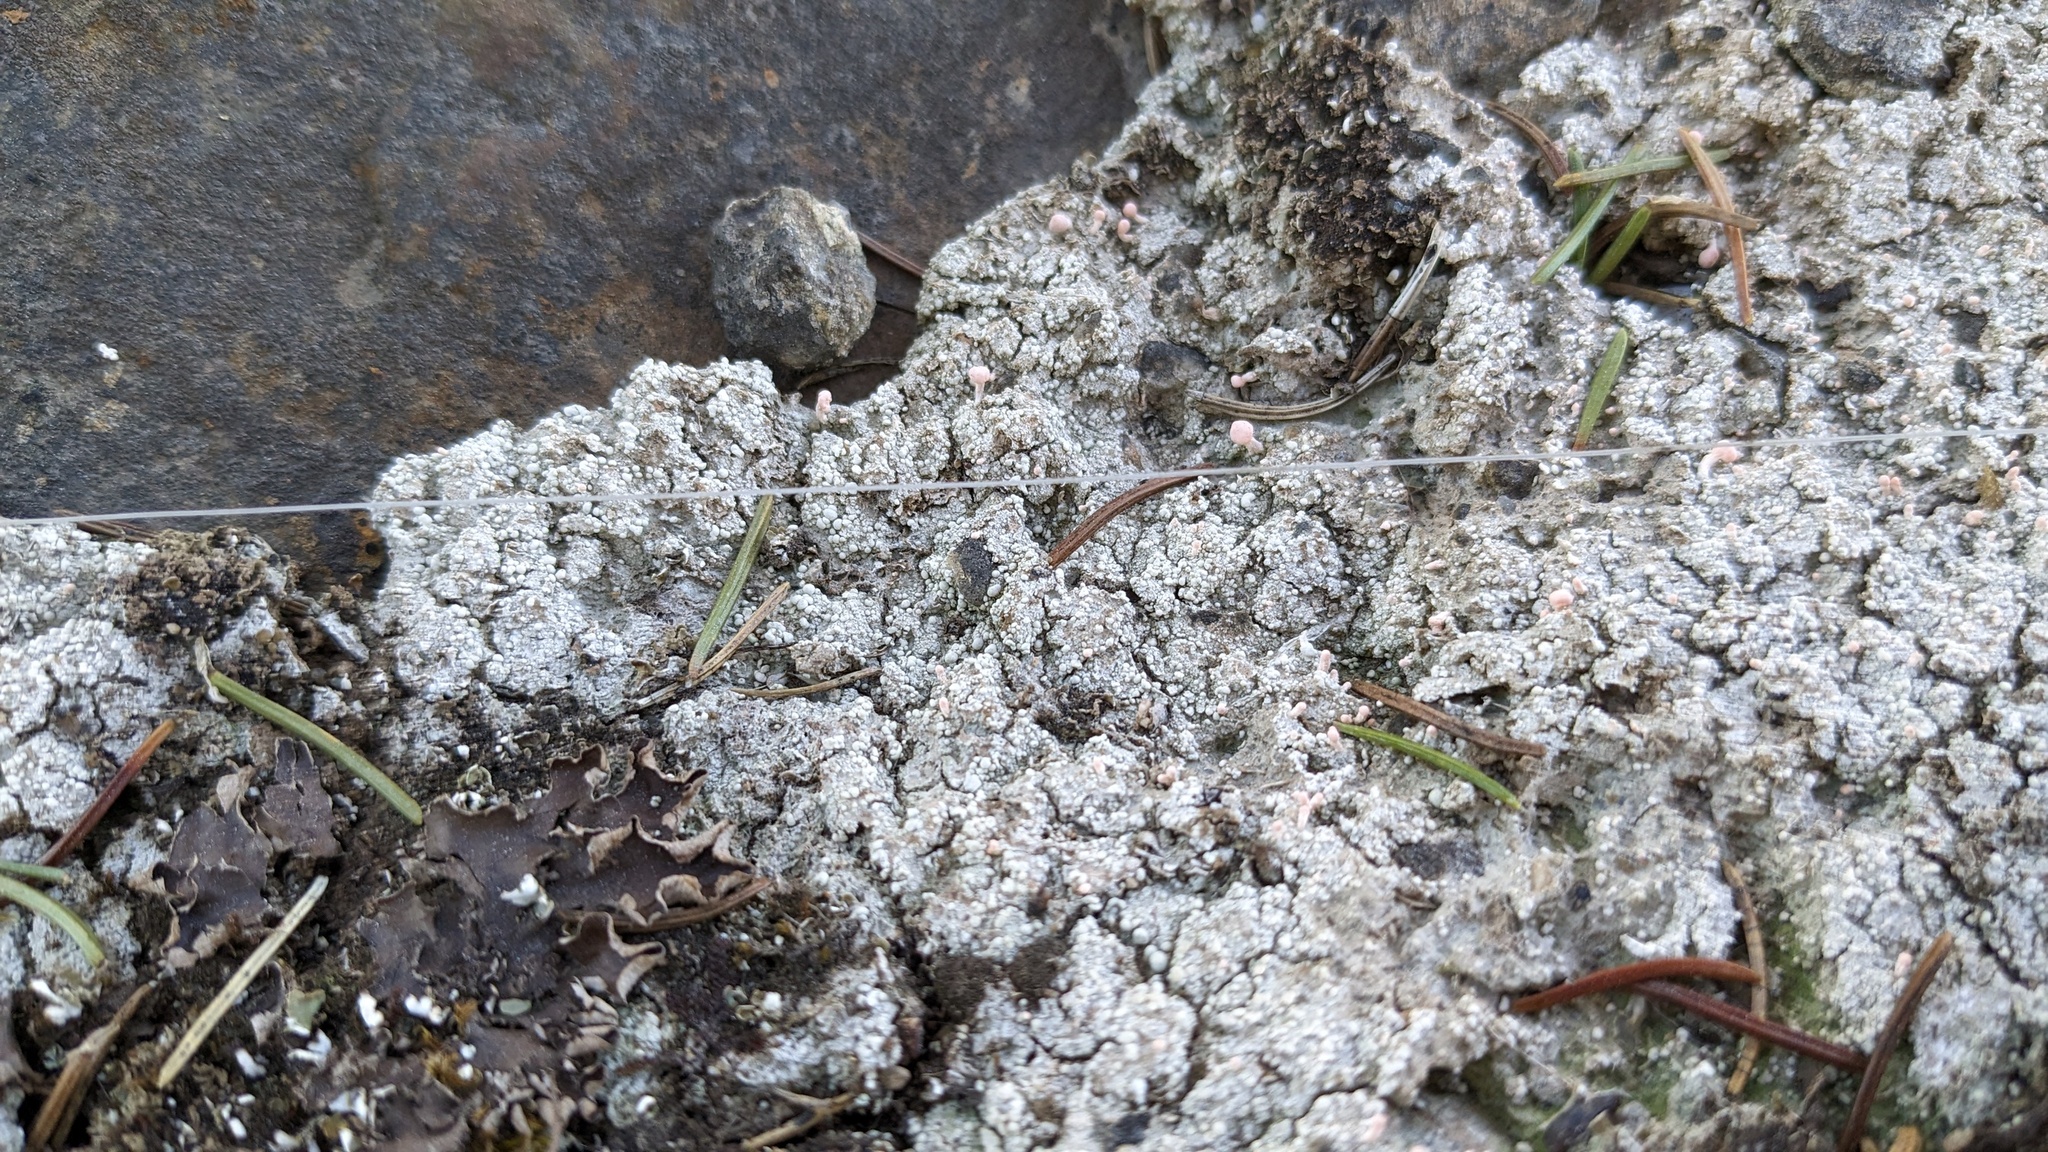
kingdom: Fungi
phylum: Ascomycota
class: Lecanoromycetes
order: Pertusariales
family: Icmadophilaceae
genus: Dibaeis
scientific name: Dibaeis baeomyces
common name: Pink earth lichen
